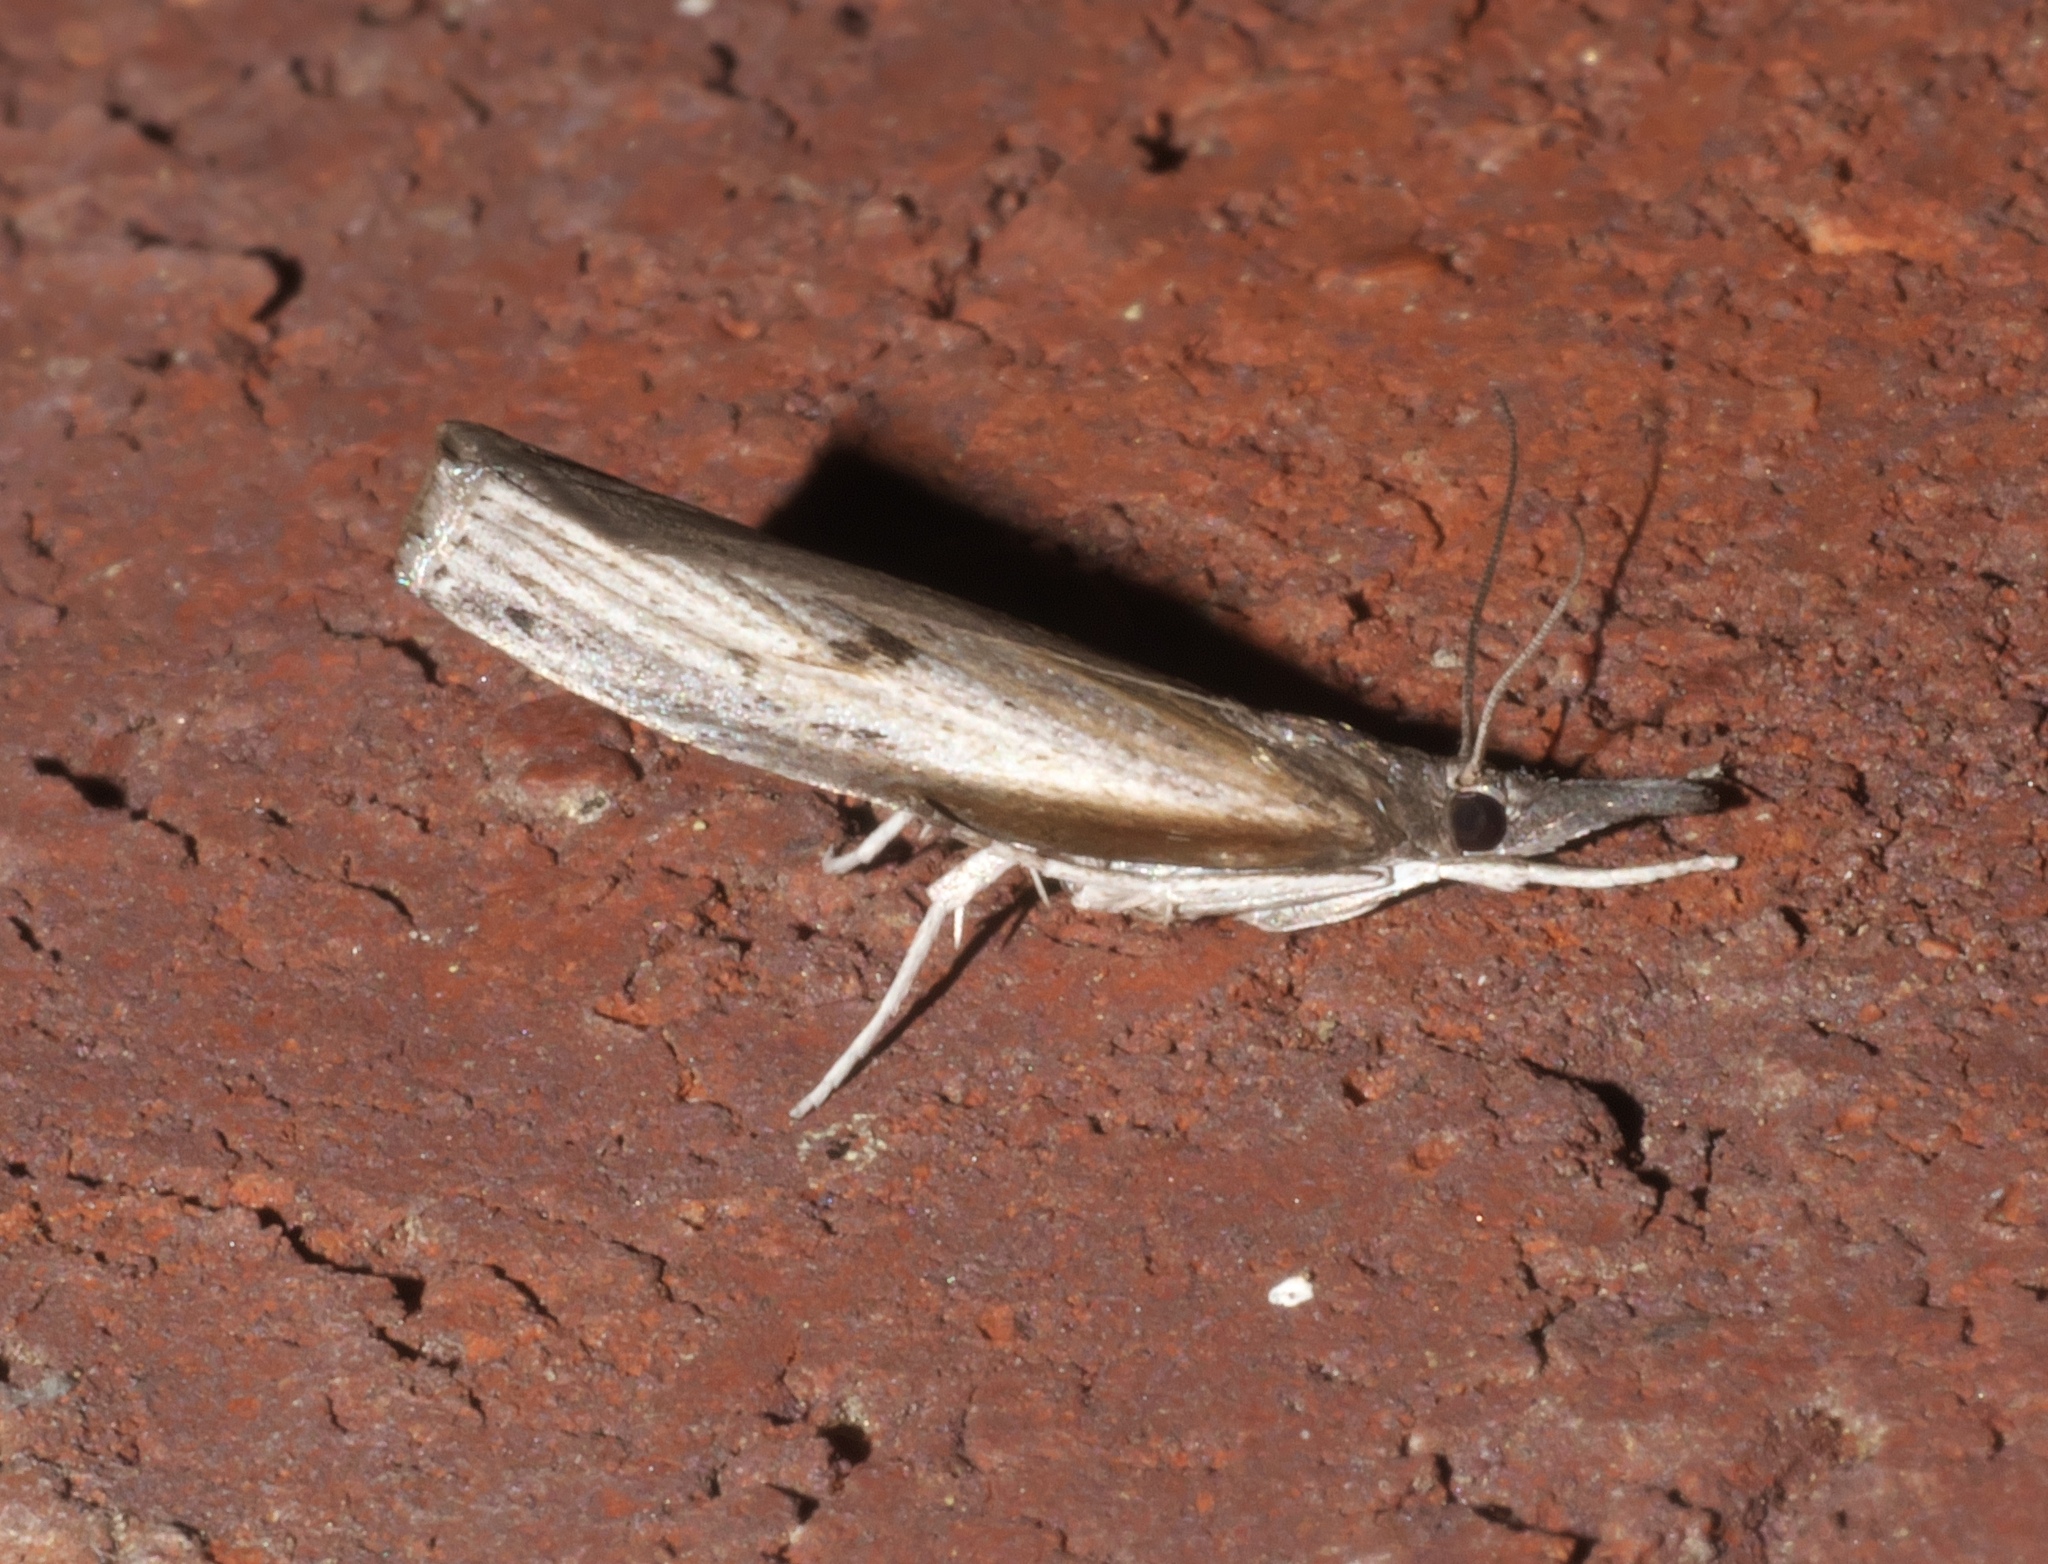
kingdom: Animalia
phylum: Arthropoda
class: Insecta
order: Lepidoptera
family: Crambidae
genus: Fissicrambus
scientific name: Fissicrambus mutabilis
